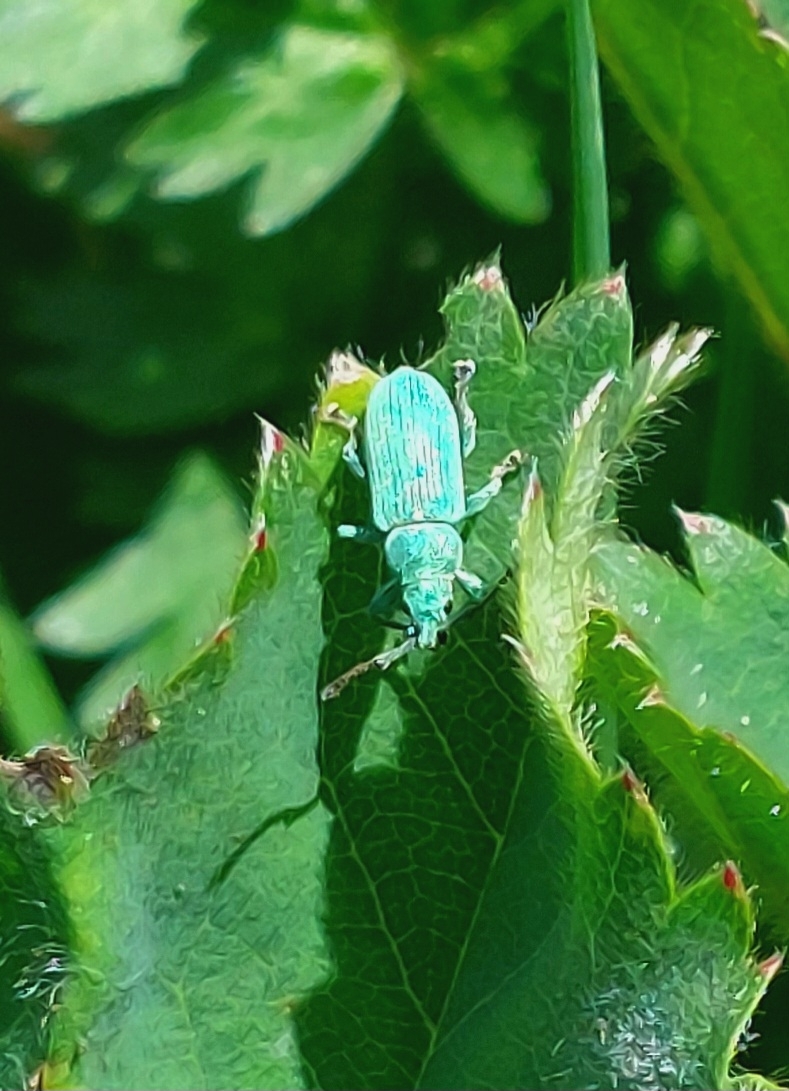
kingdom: Animalia
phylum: Arthropoda
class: Insecta
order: Coleoptera
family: Curculionidae
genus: Phyllobius
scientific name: Phyllobius maculicornis
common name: Green leaf weevil
